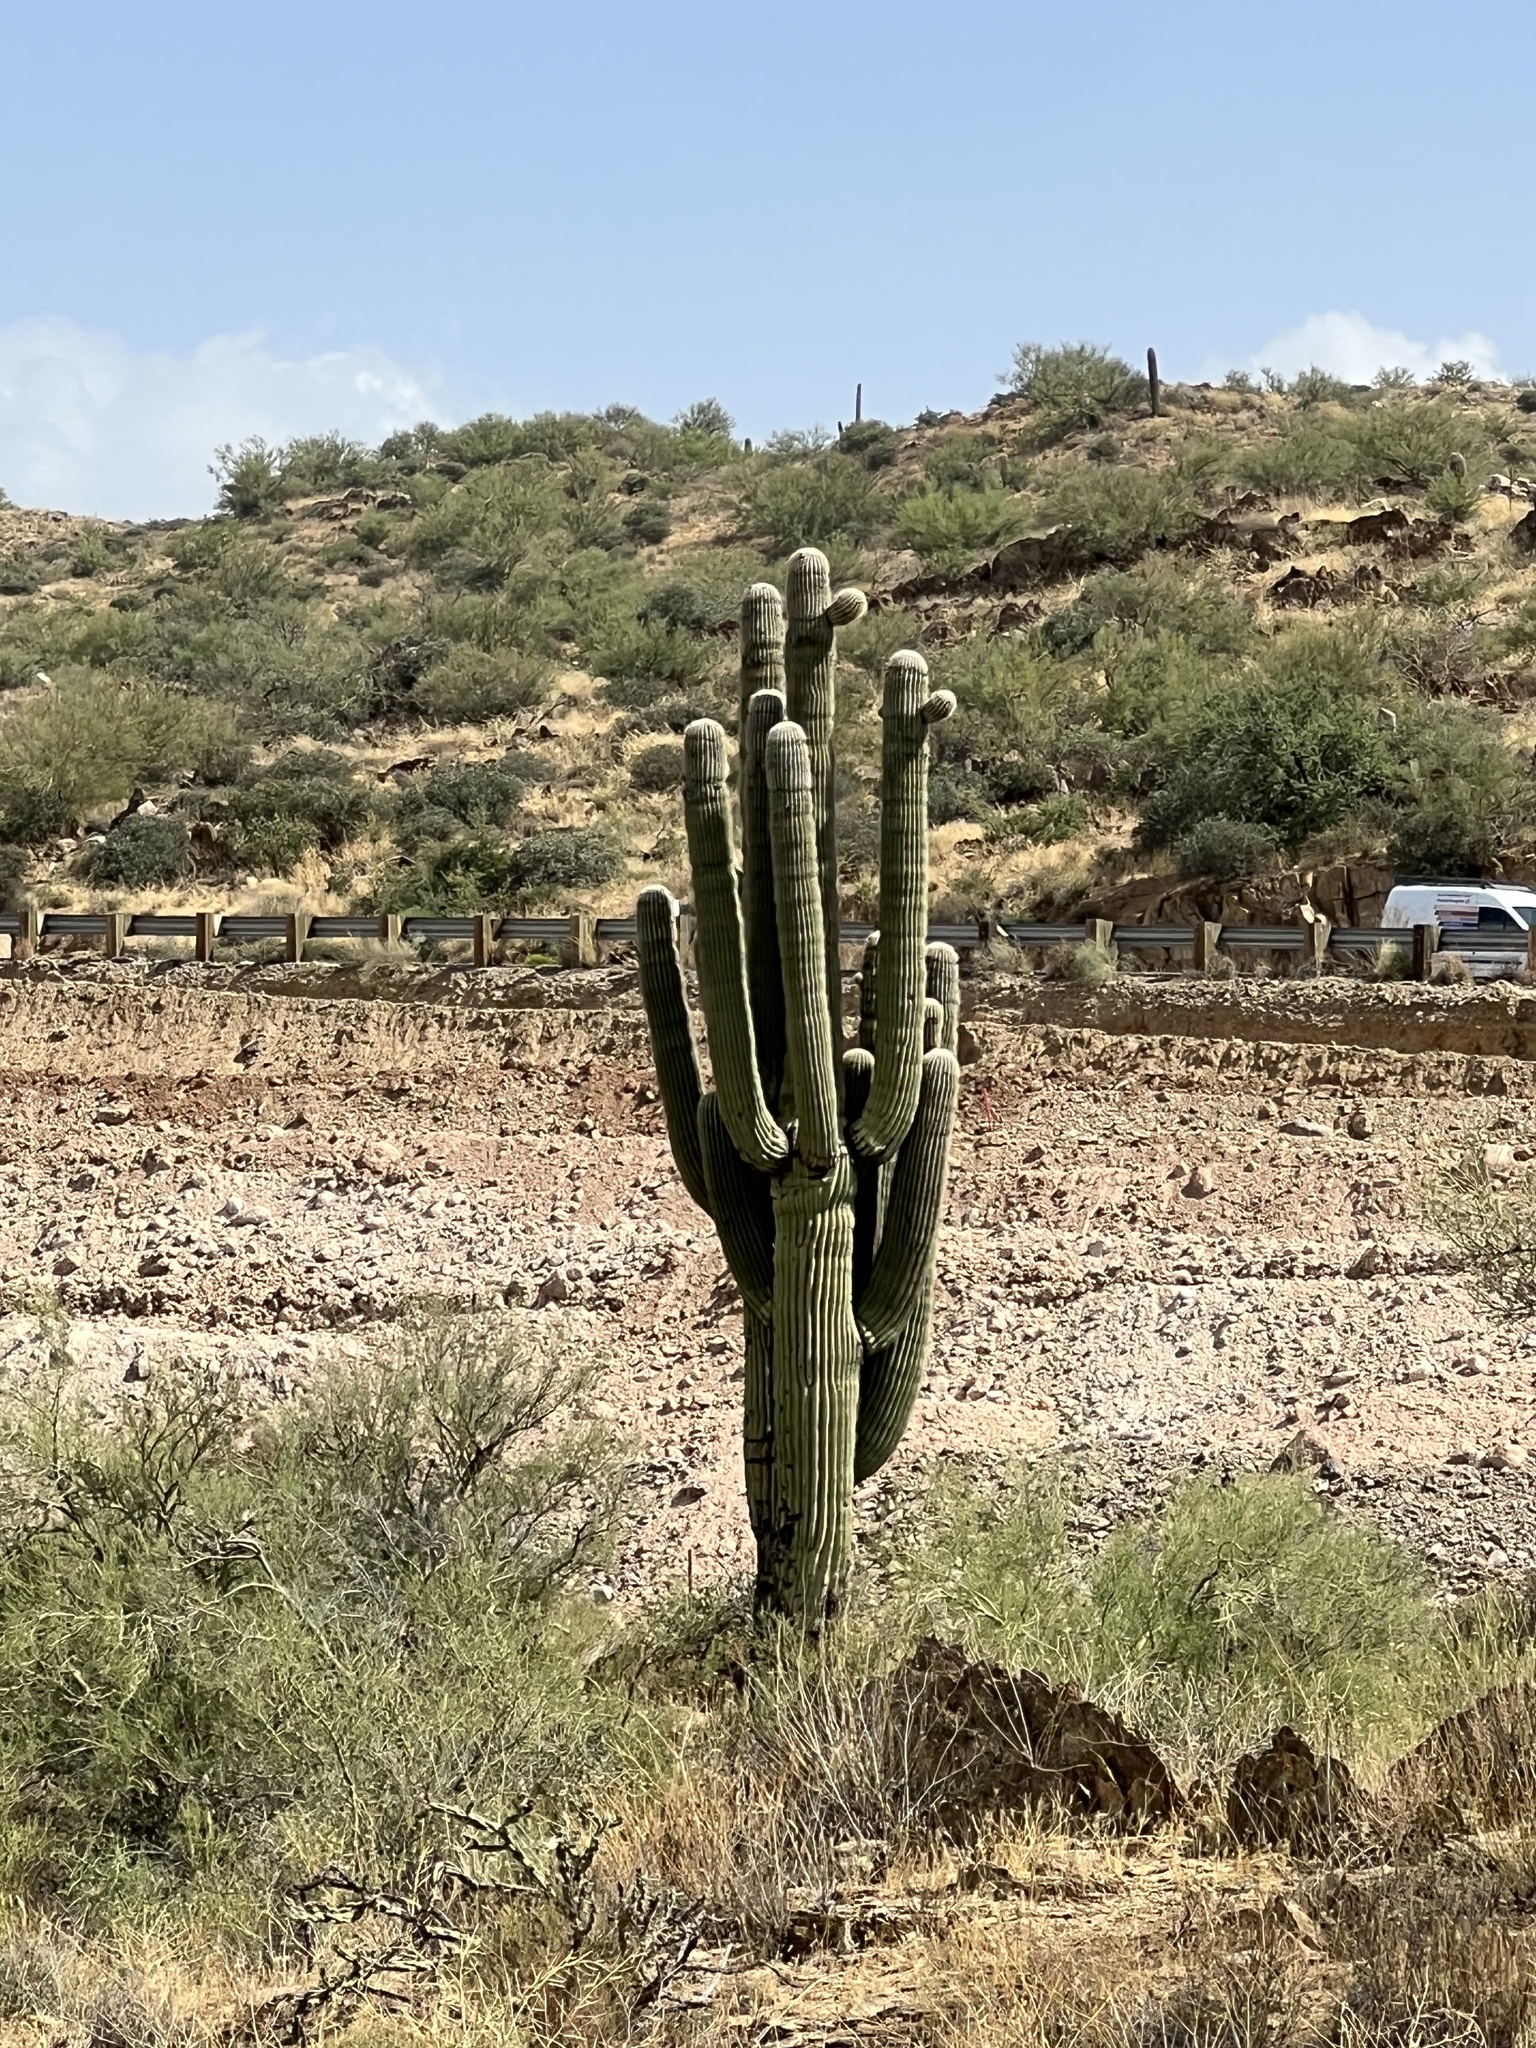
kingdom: Plantae
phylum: Tracheophyta
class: Magnoliopsida
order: Caryophyllales
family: Cactaceae
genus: Carnegiea
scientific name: Carnegiea gigantea
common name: Saguaro
